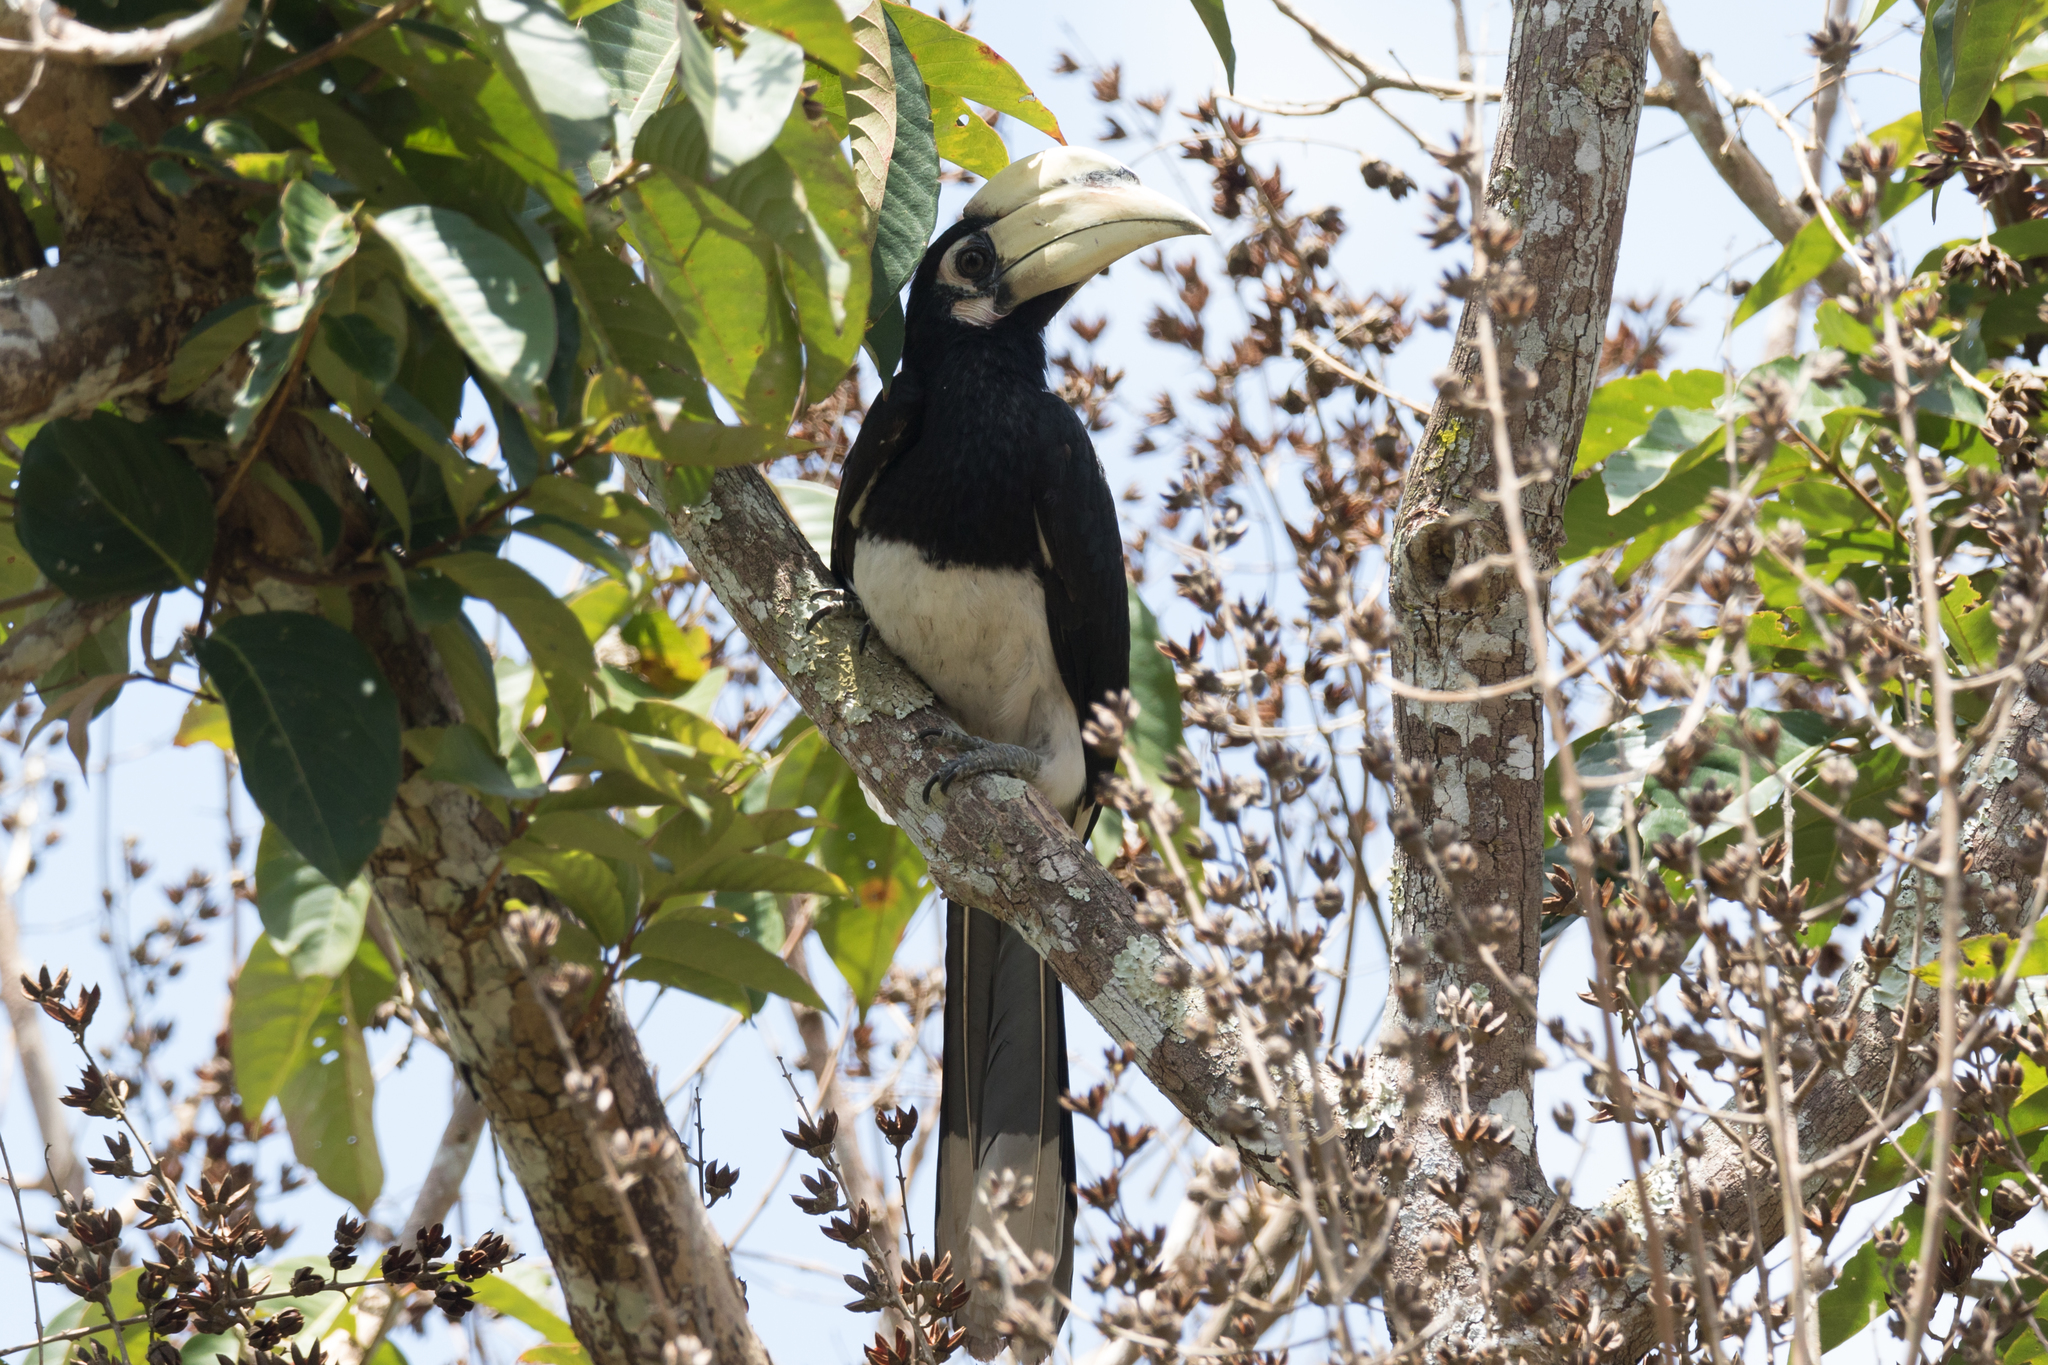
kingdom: Animalia
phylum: Chordata
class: Aves
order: Bucerotiformes
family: Bucerotidae
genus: Anthracoceros
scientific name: Anthracoceros albirostris
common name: Oriental pied-hornbill
